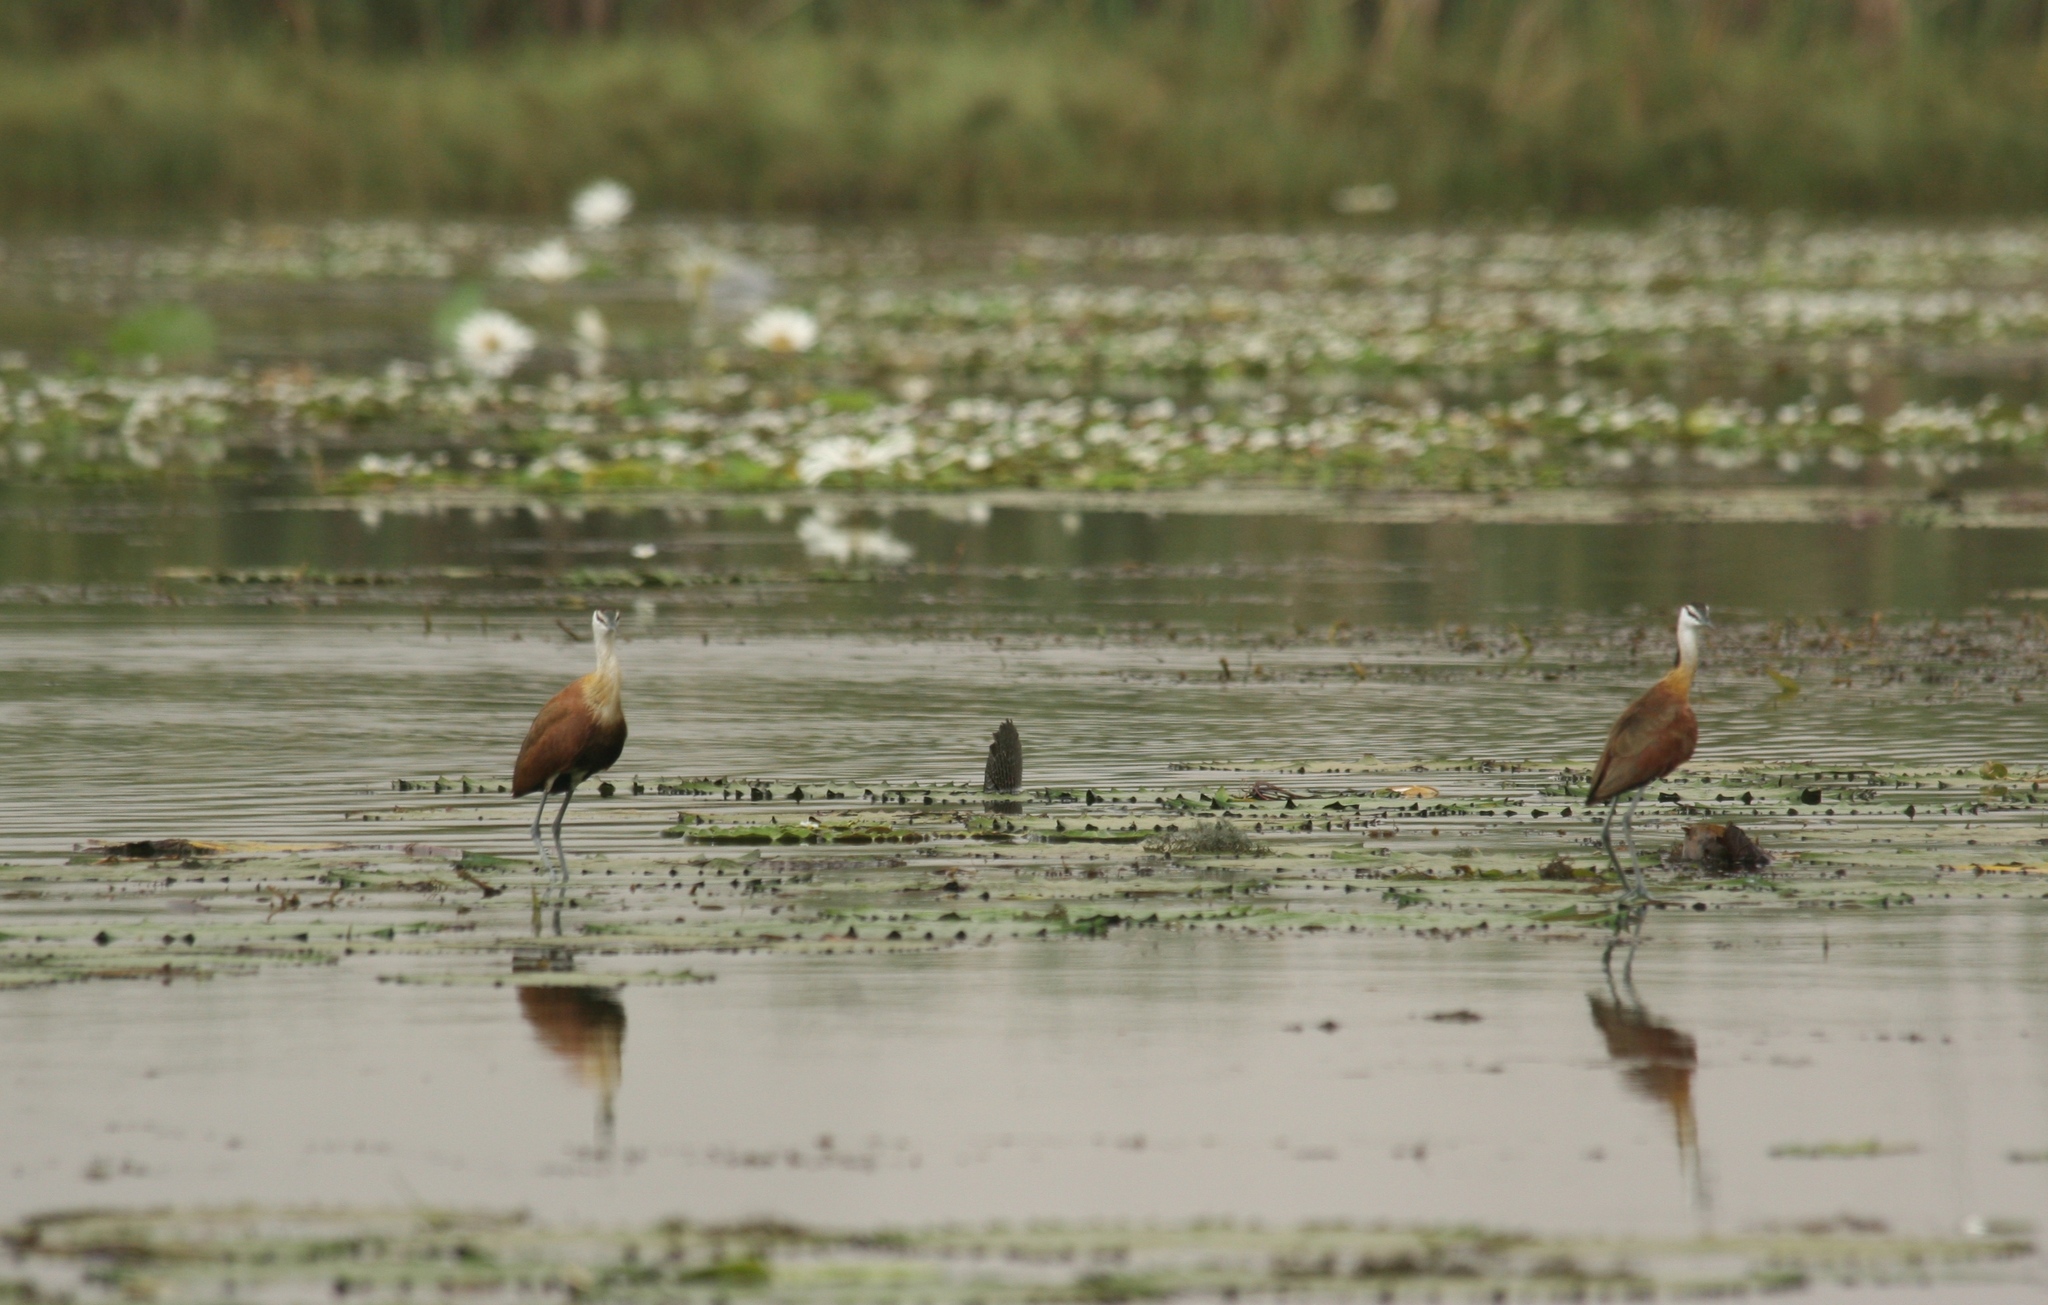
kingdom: Animalia
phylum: Chordata
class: Aves
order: Charadriiformes
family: Jacanidae
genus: Actophilornis
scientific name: Actophilornis africanus
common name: African jacana
